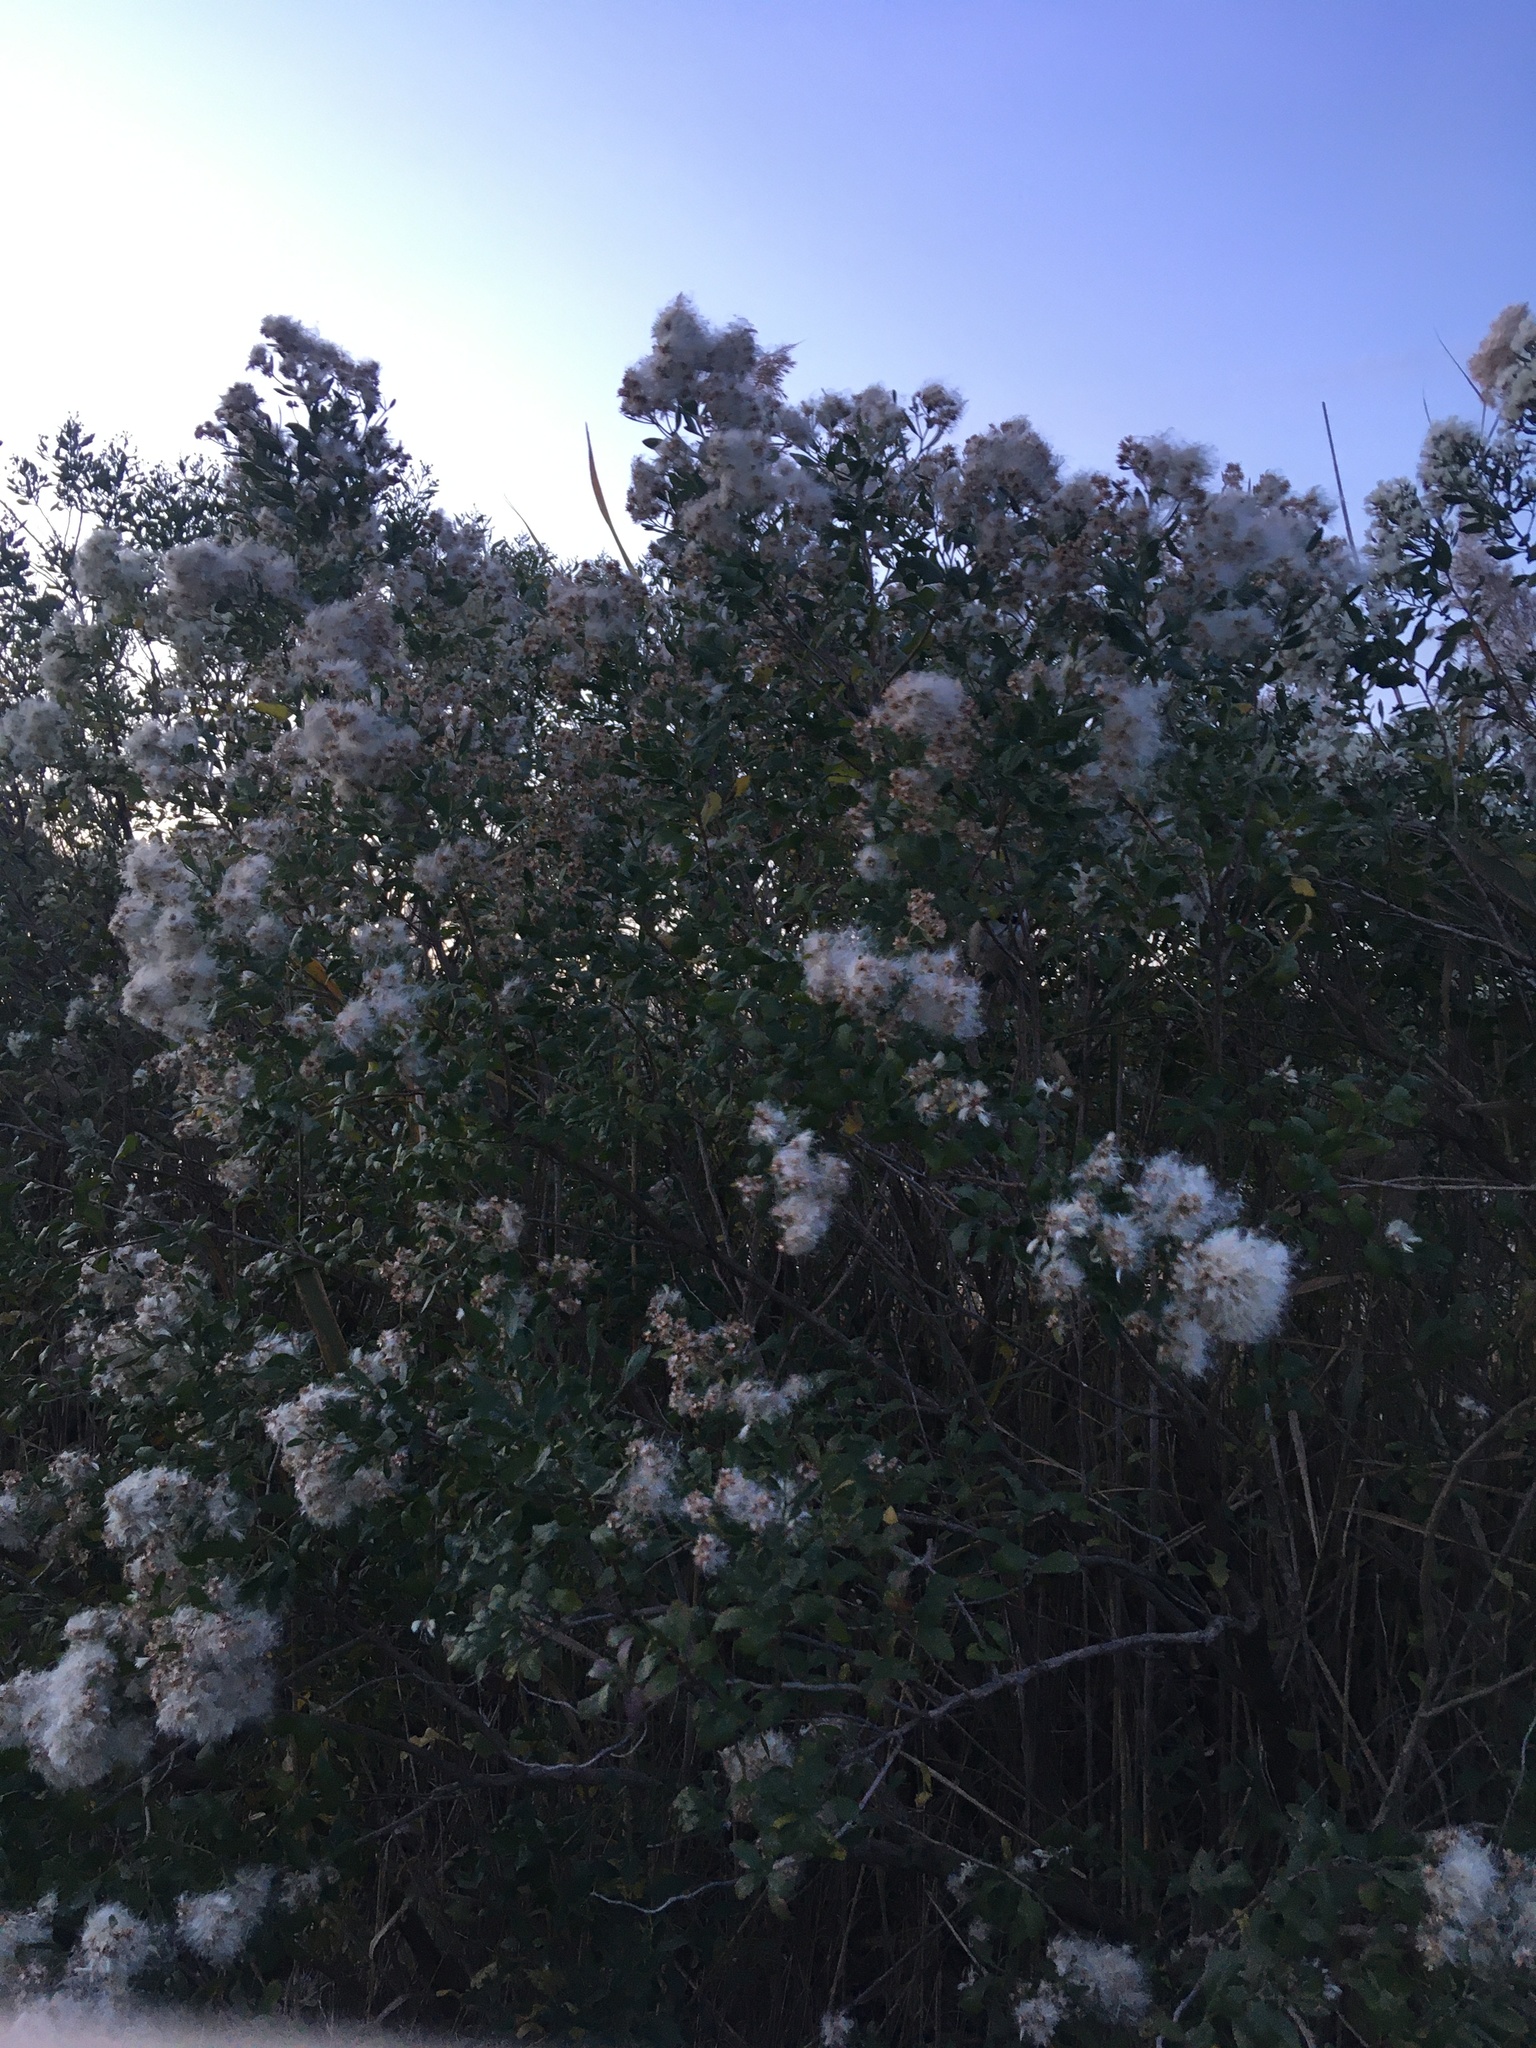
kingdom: Plantae
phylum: Tracheophyta
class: Magnoliopsida
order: Asterales
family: Asteraceae
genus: Baccharis
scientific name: Baccharis halimifolia
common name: Eastern baccharis
